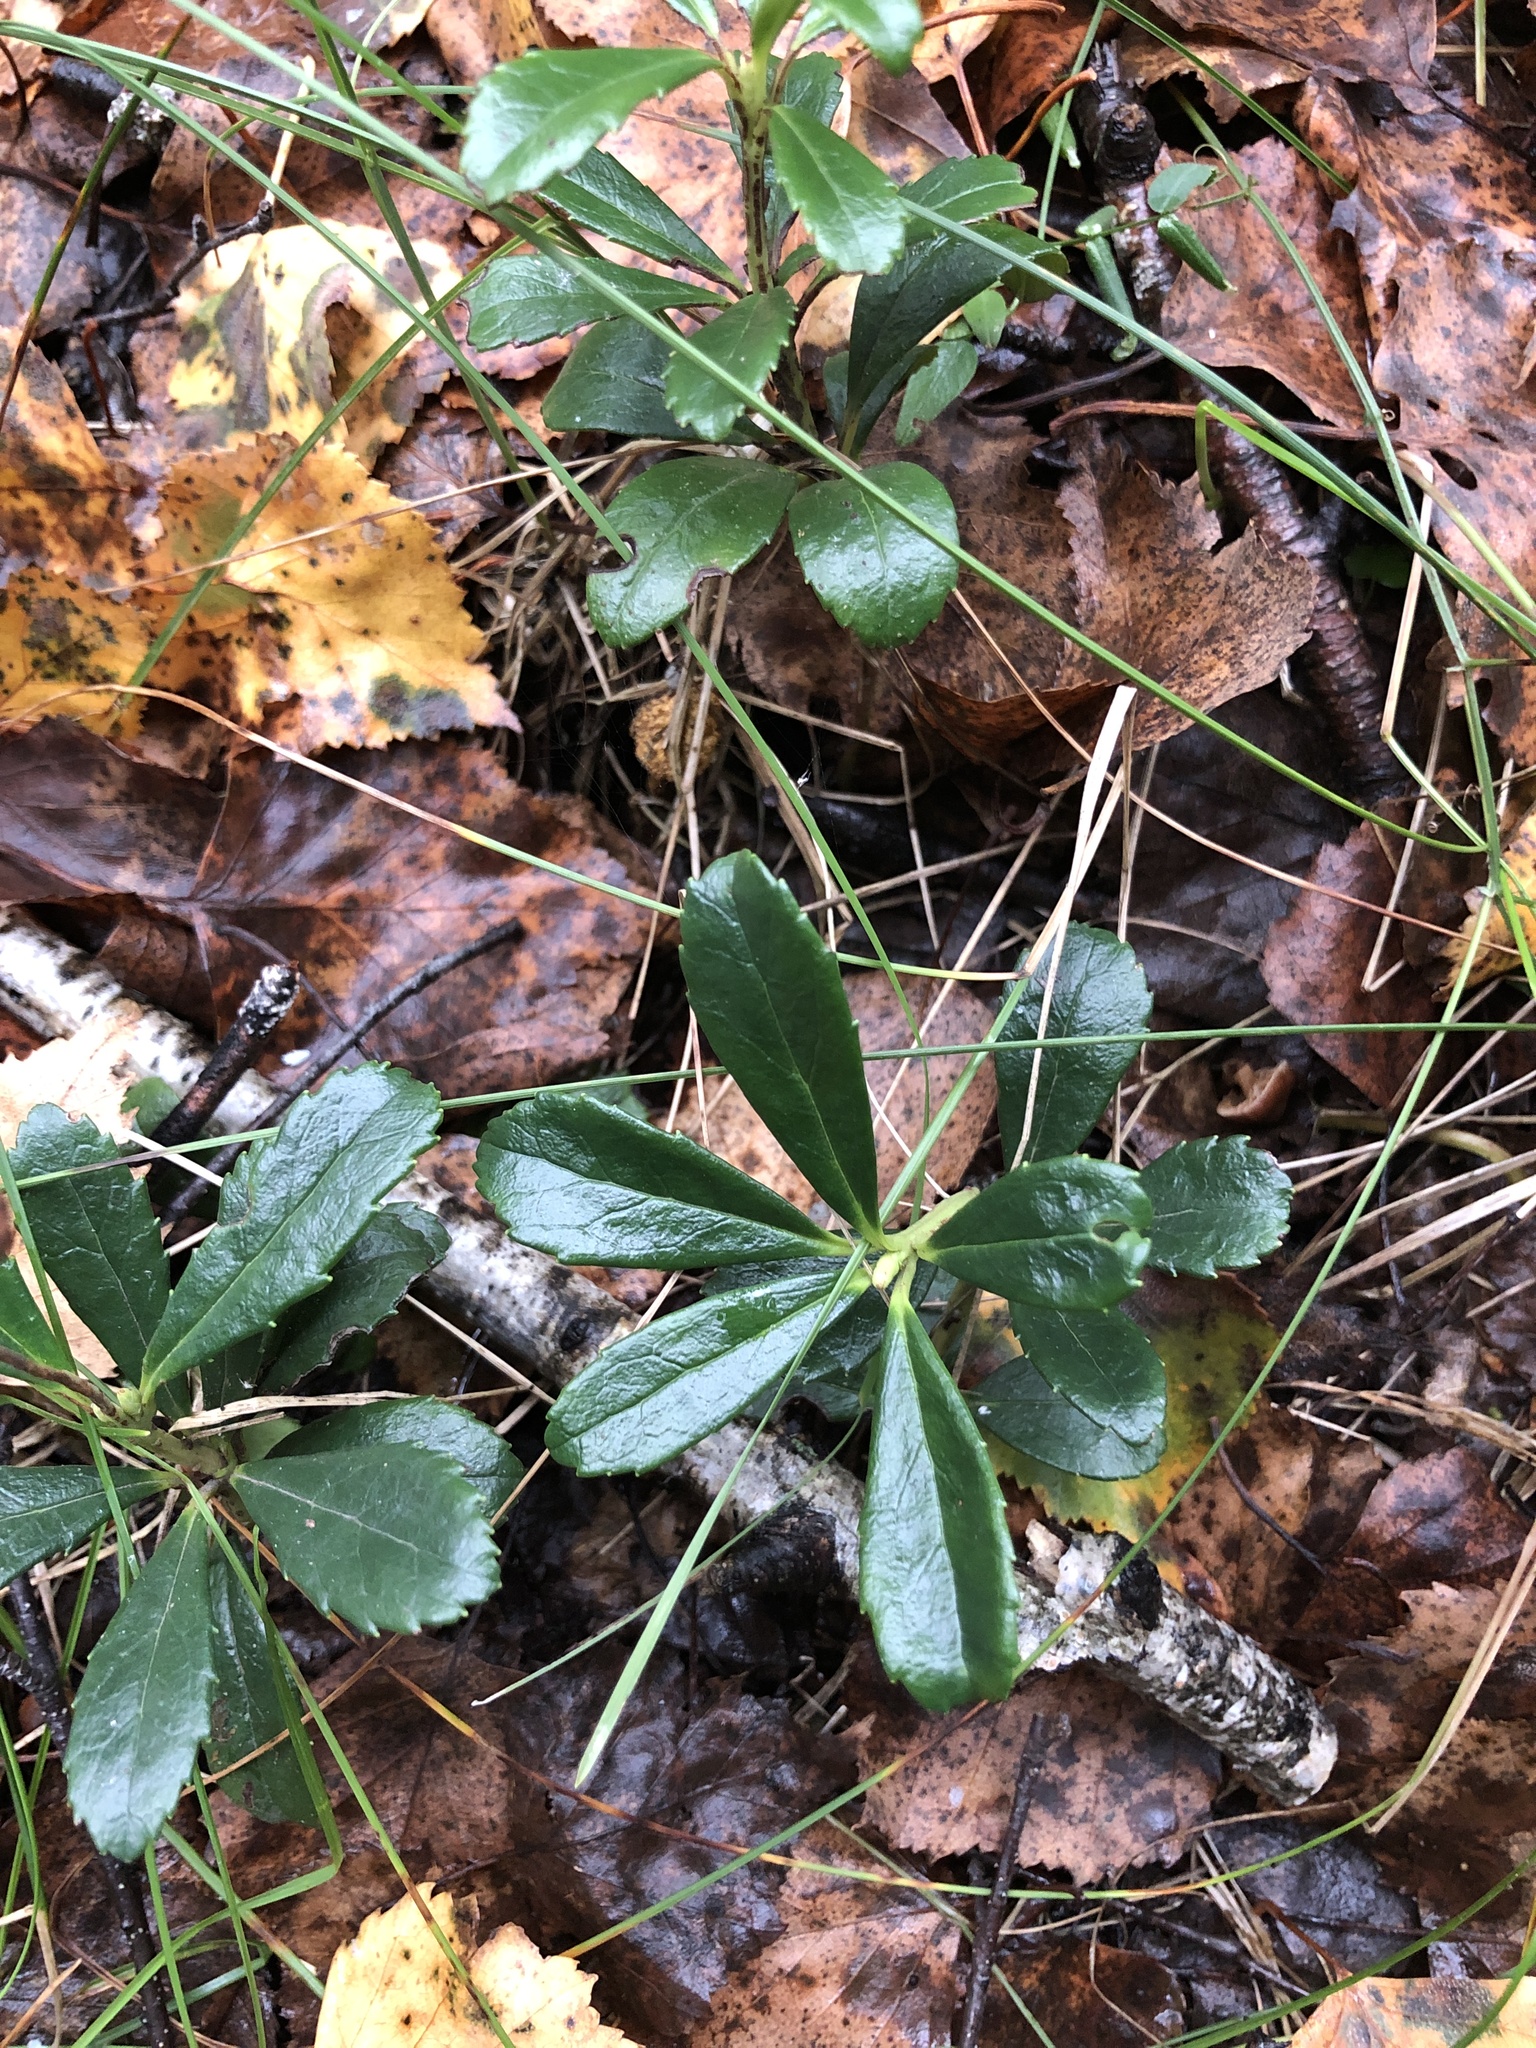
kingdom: Plantae
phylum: Tracheophyta
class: Magnoliopsida
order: Ericales
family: Ericaceae
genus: Chimaphila
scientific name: Chimaphila umbellata
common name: Pipsissewa
